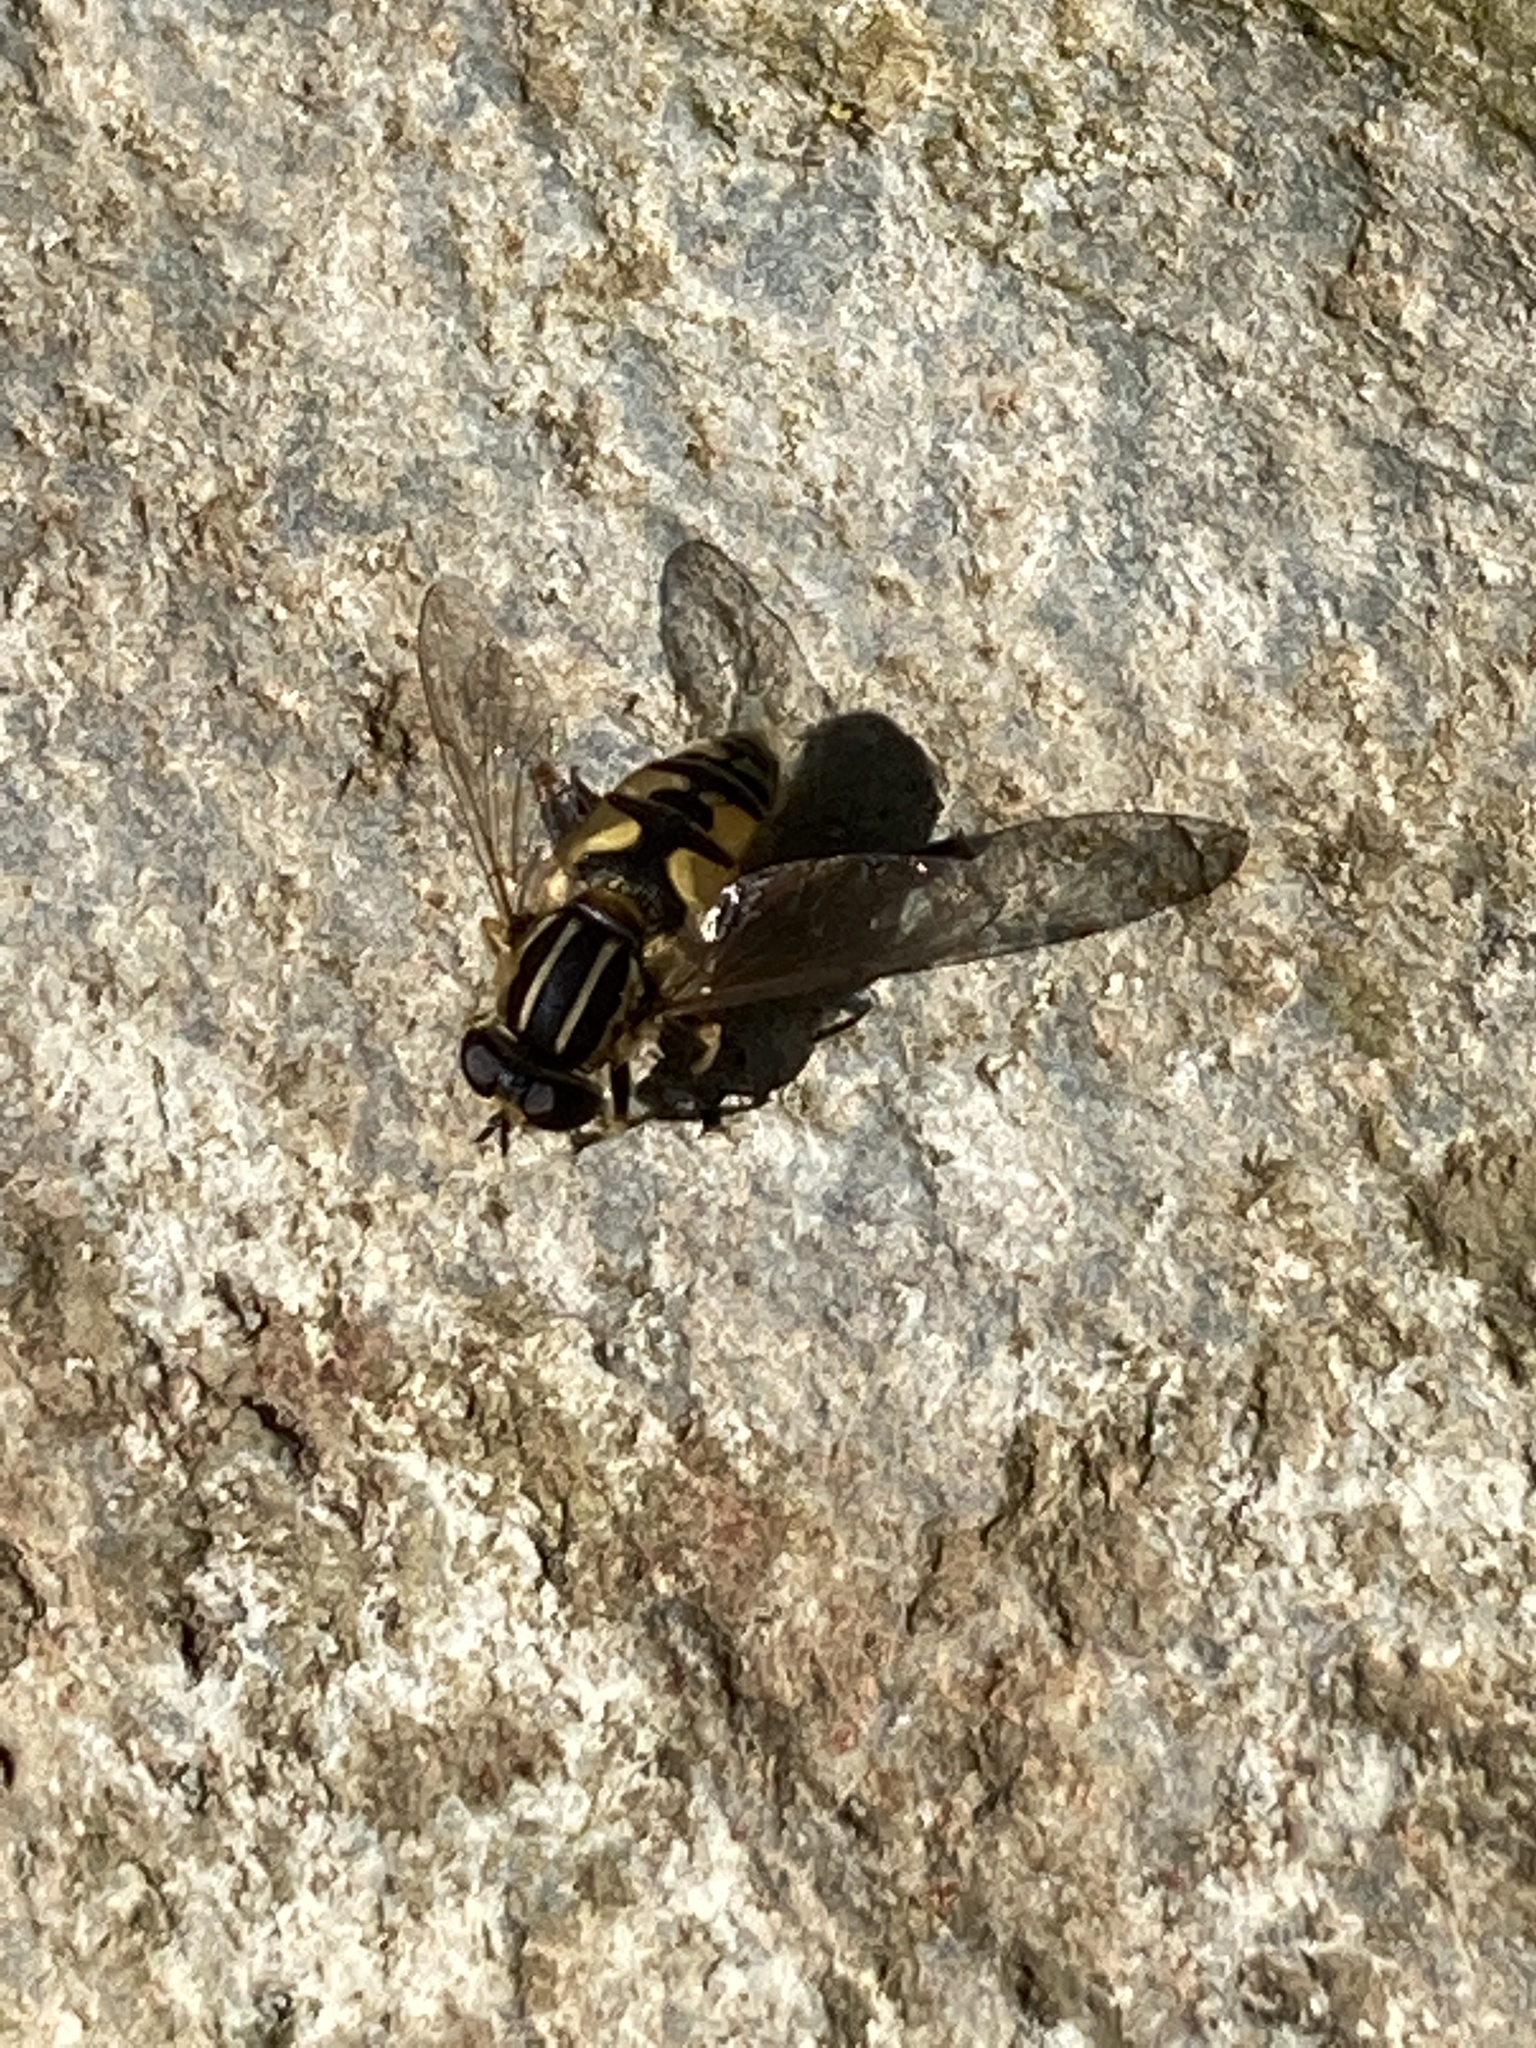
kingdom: Animalia
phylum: Arthropoda
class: Insecta
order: Diptera
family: Syrphidae
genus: Helophilus
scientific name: Helophilus pendulus
